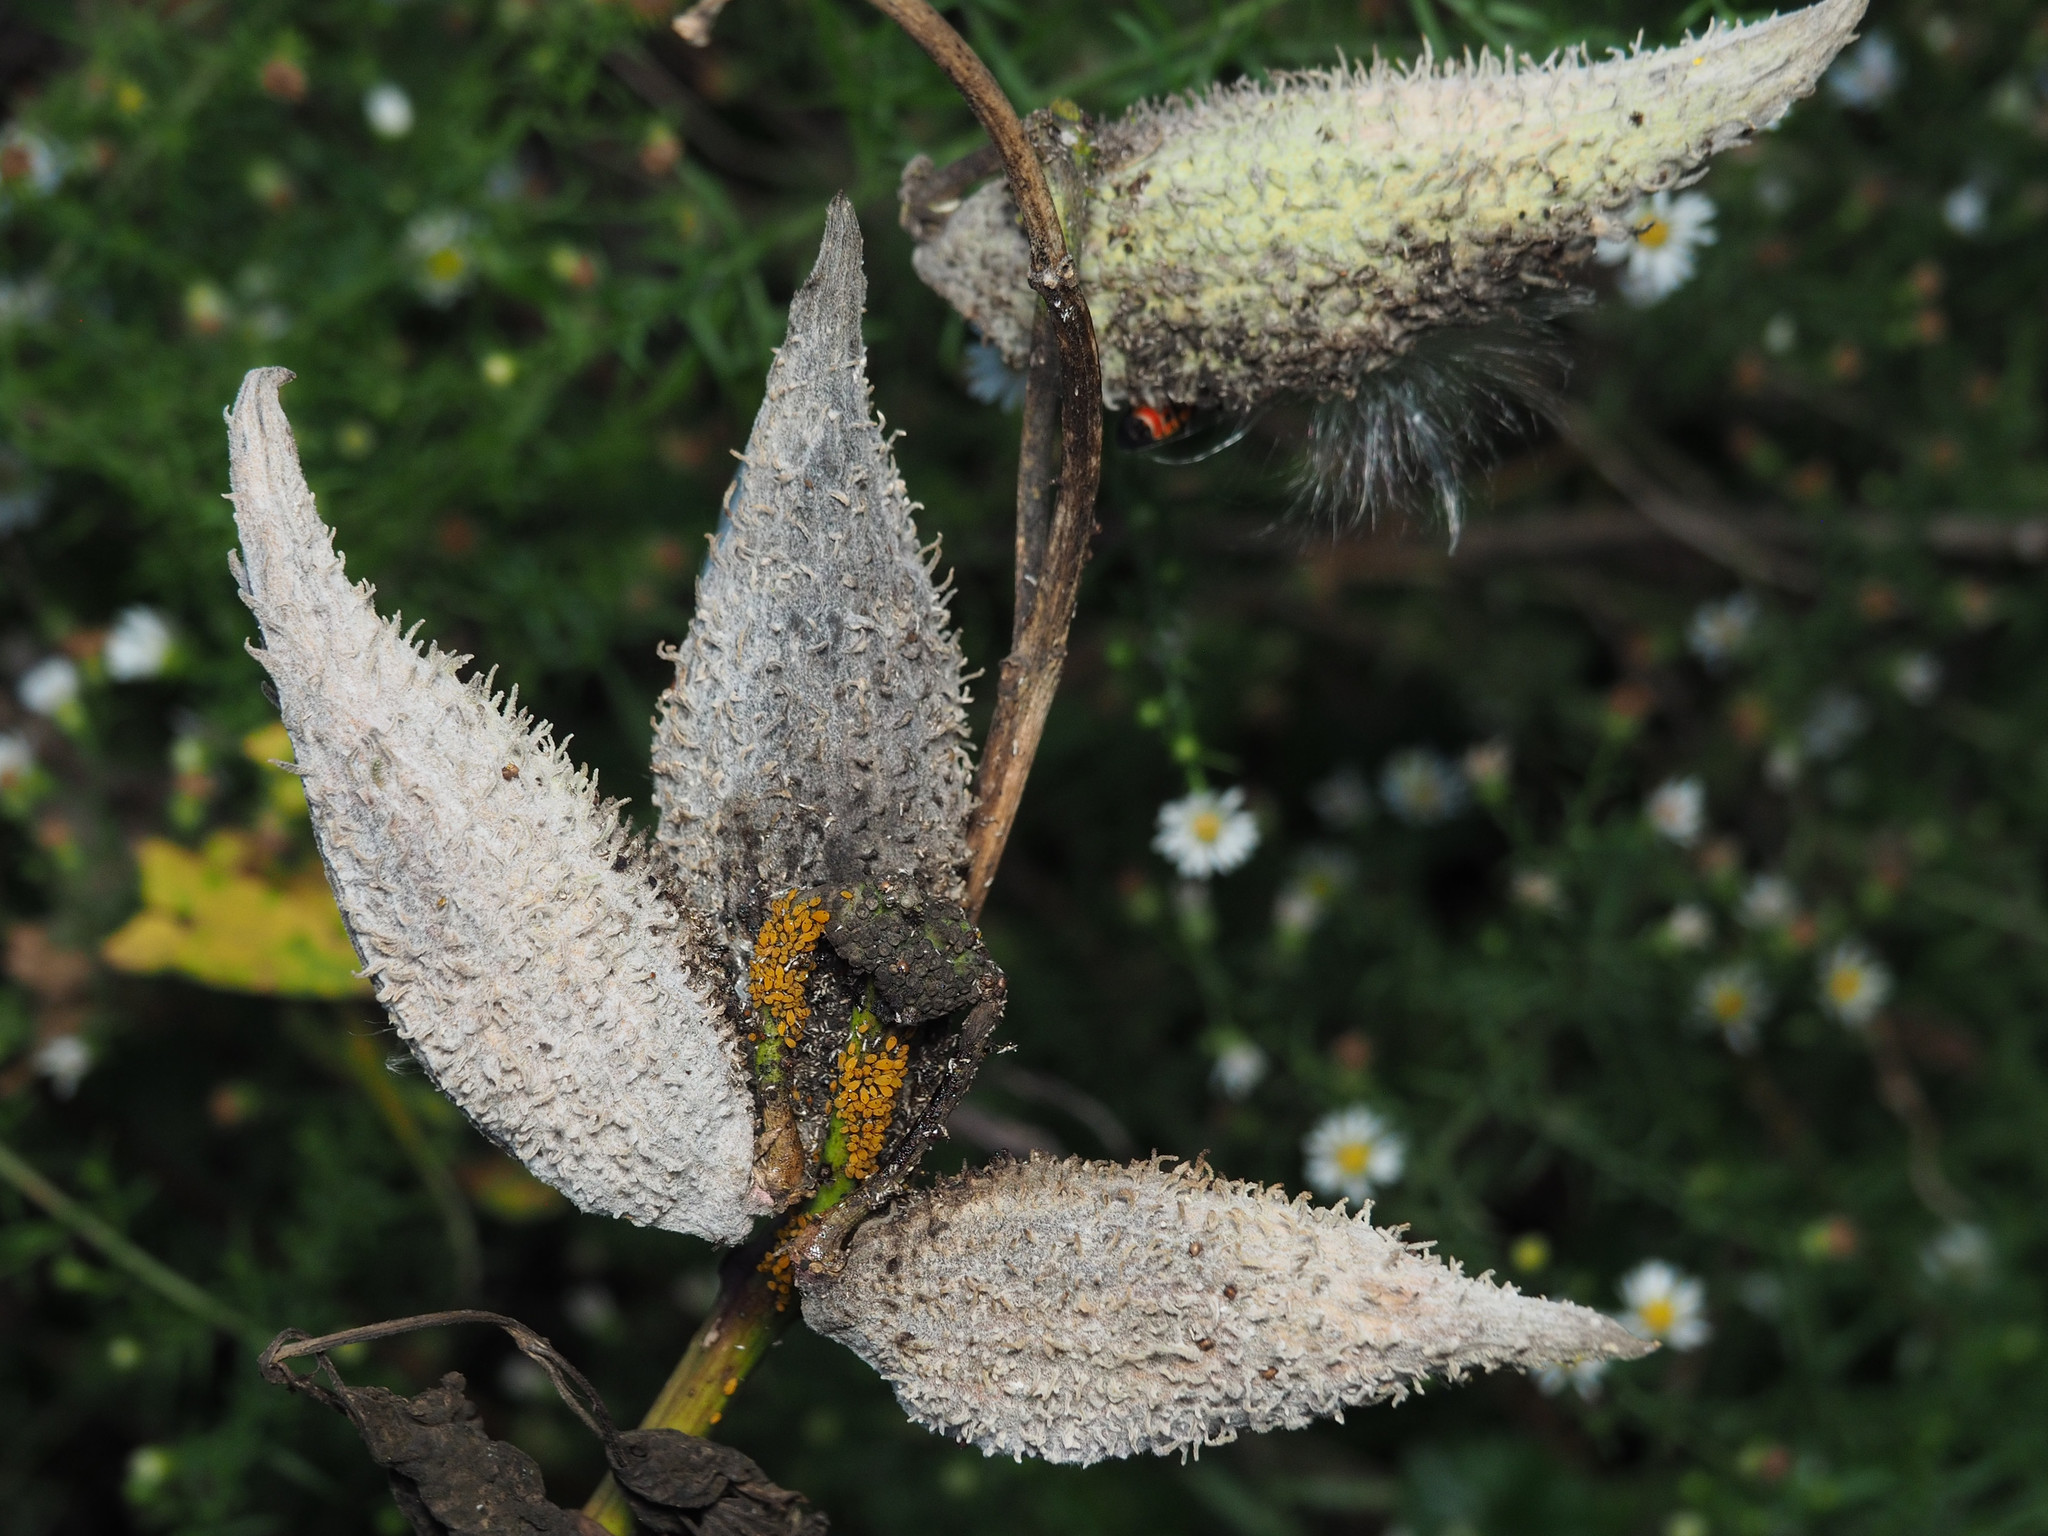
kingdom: Animalia
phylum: Arthropoda
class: Insecta
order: Hemiptera
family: Aphididae
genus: Aphis
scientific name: Aphis nerii
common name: Oleander aphid
